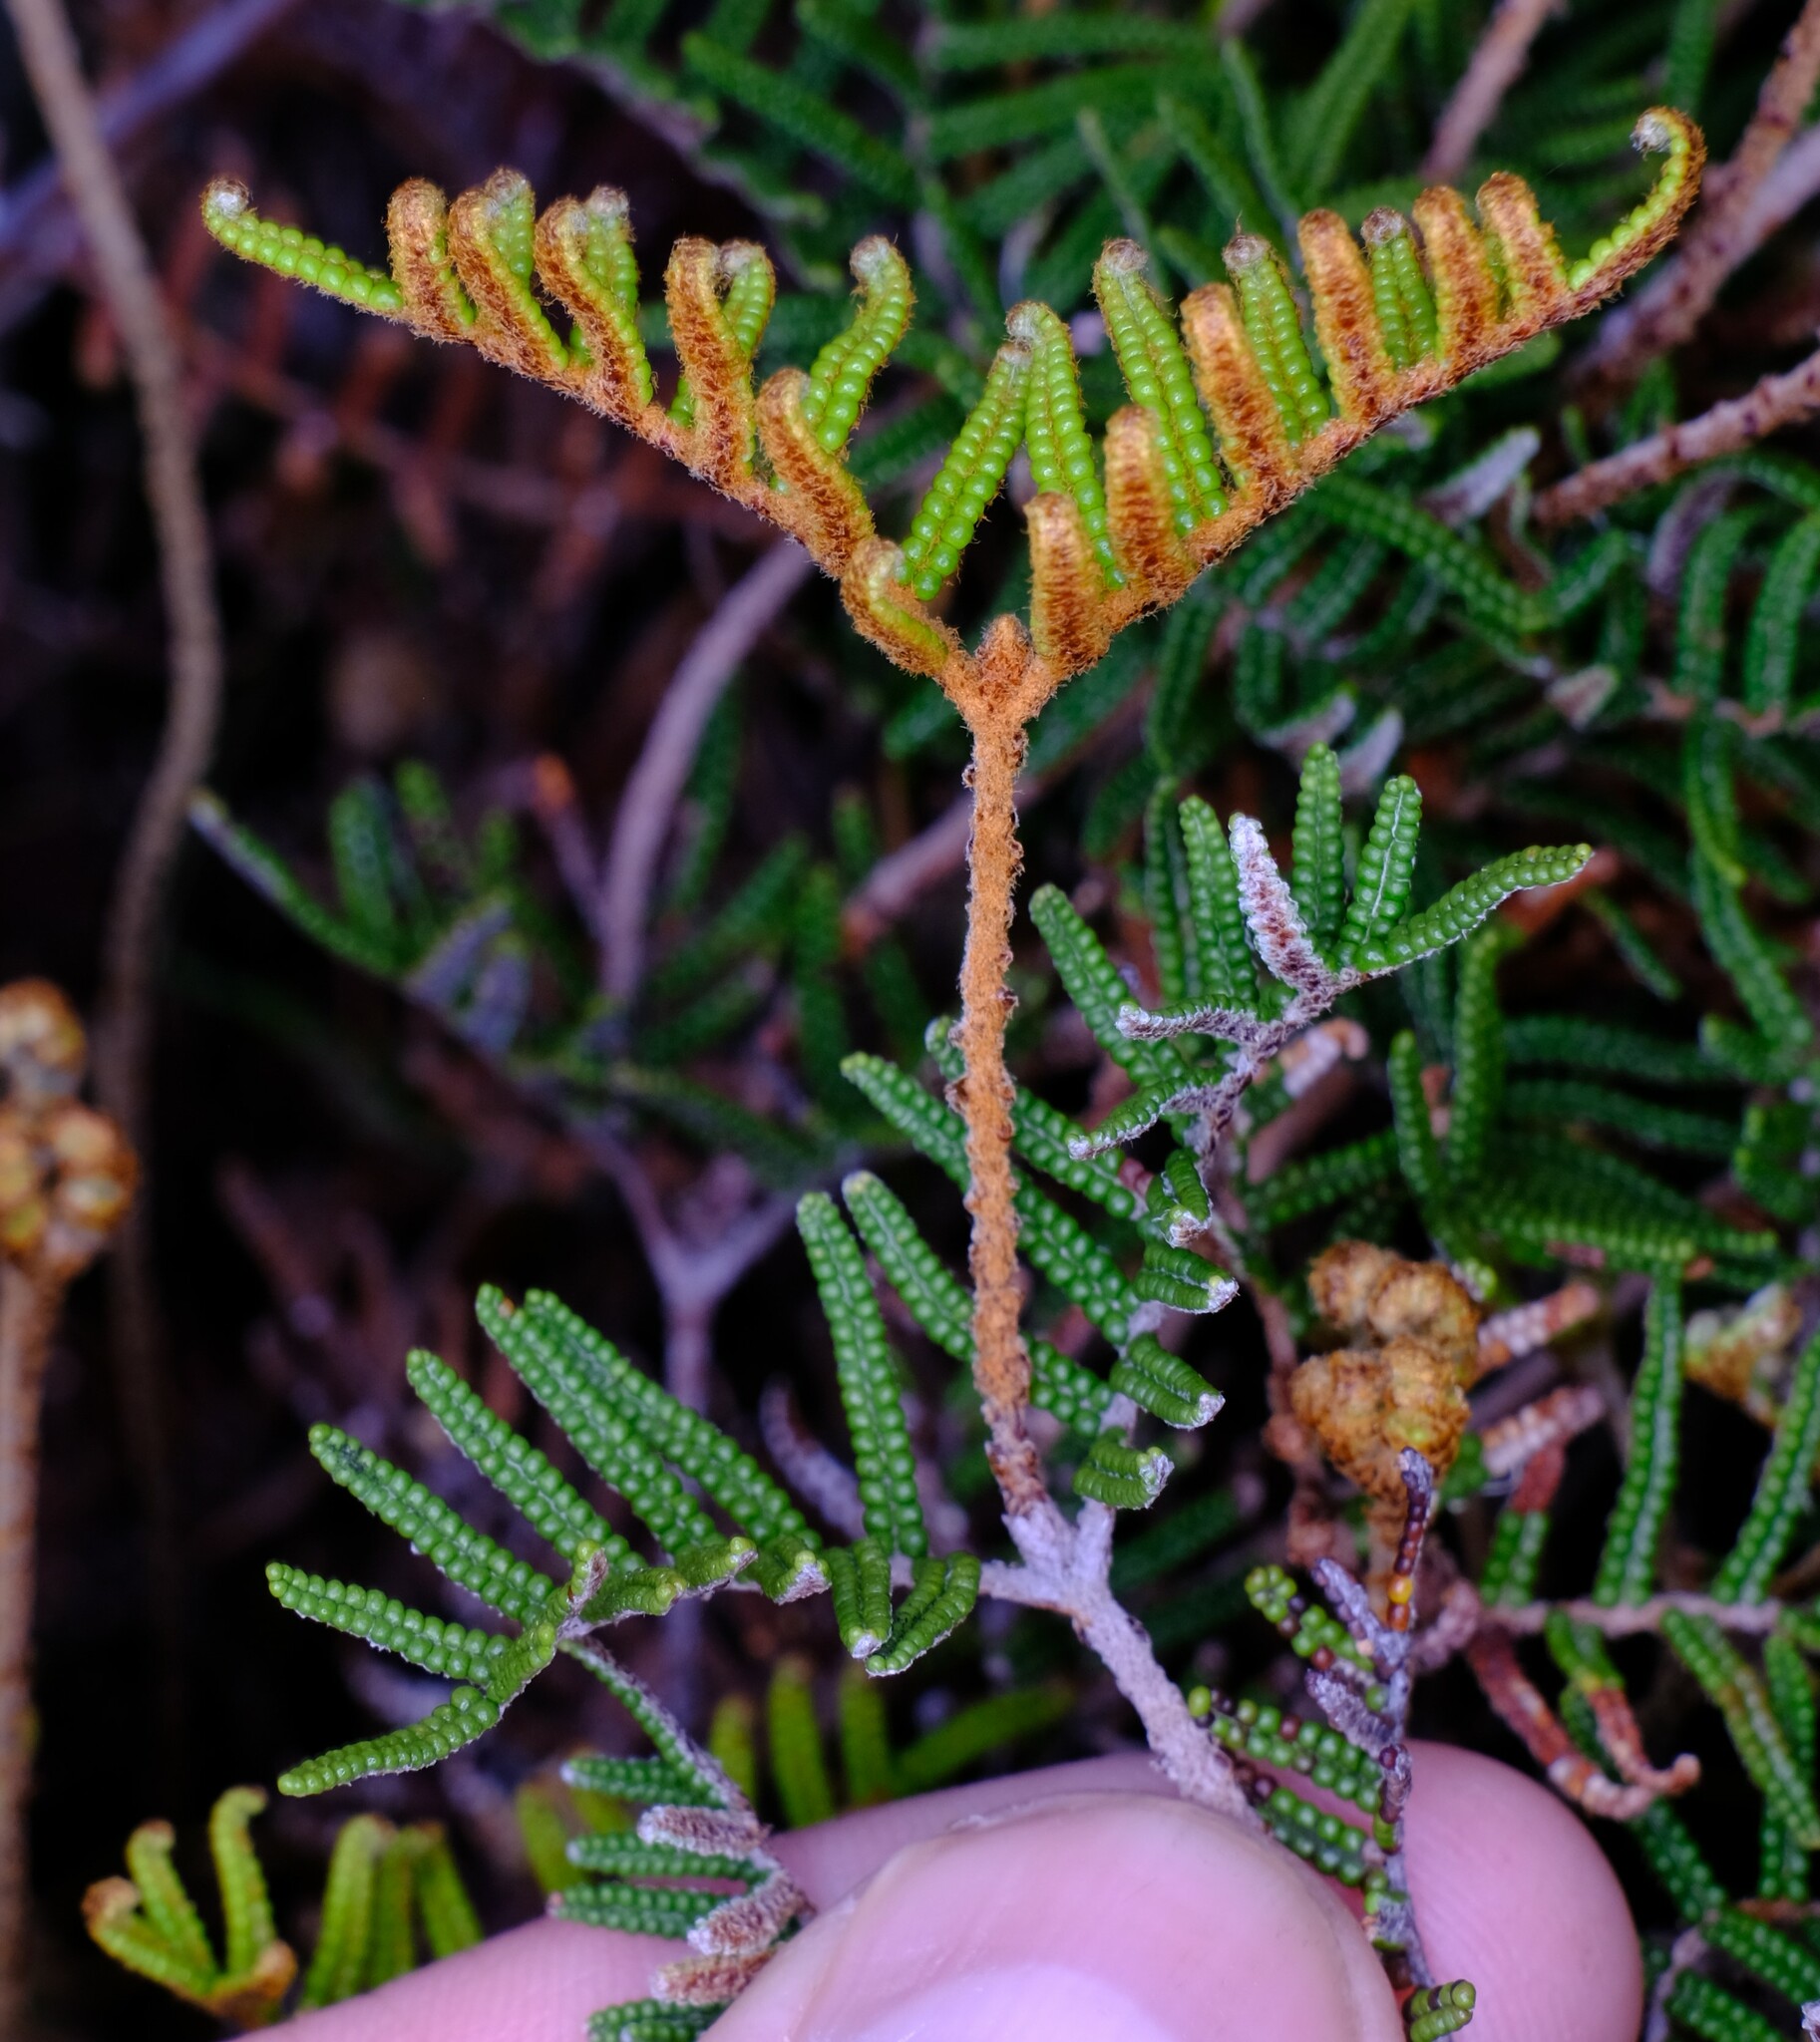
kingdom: Plantae
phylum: Tracheophyta
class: Polypodiopsida
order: Gleicheniales
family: Gleicheniaceae
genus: Gleichenia
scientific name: Gleichenia alpina
